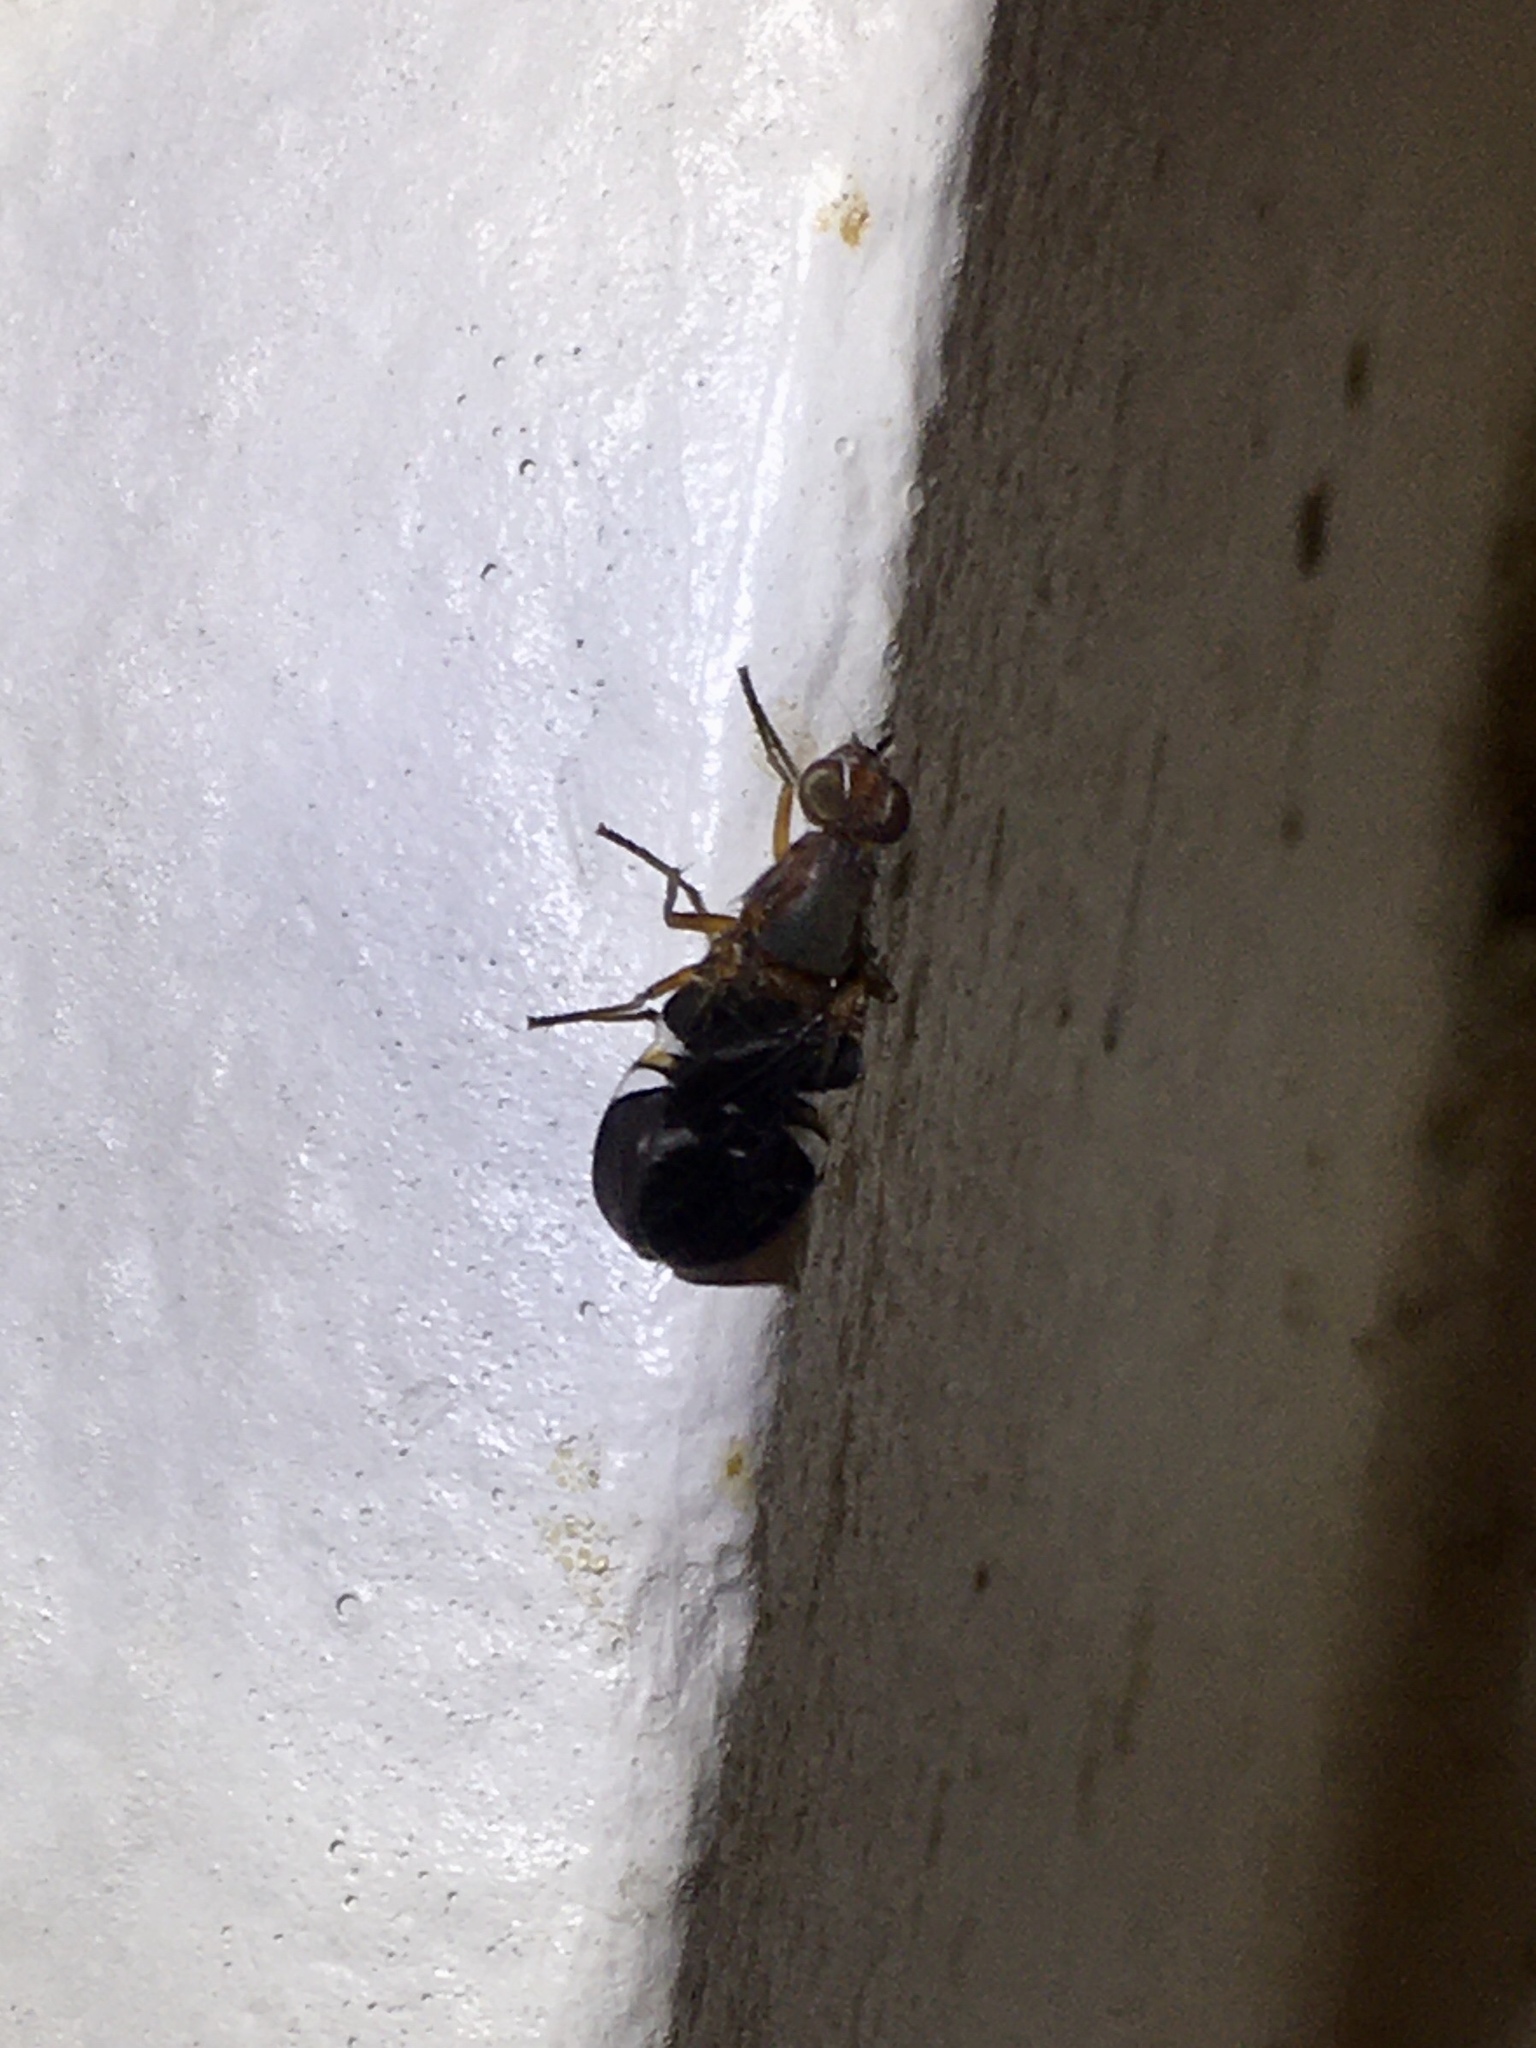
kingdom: Animalia
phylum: Arthropoda
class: Insecta
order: Diptera
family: Ulidiidae
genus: Delphinia
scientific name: Delphinia picta
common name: Common picture-winged fly
